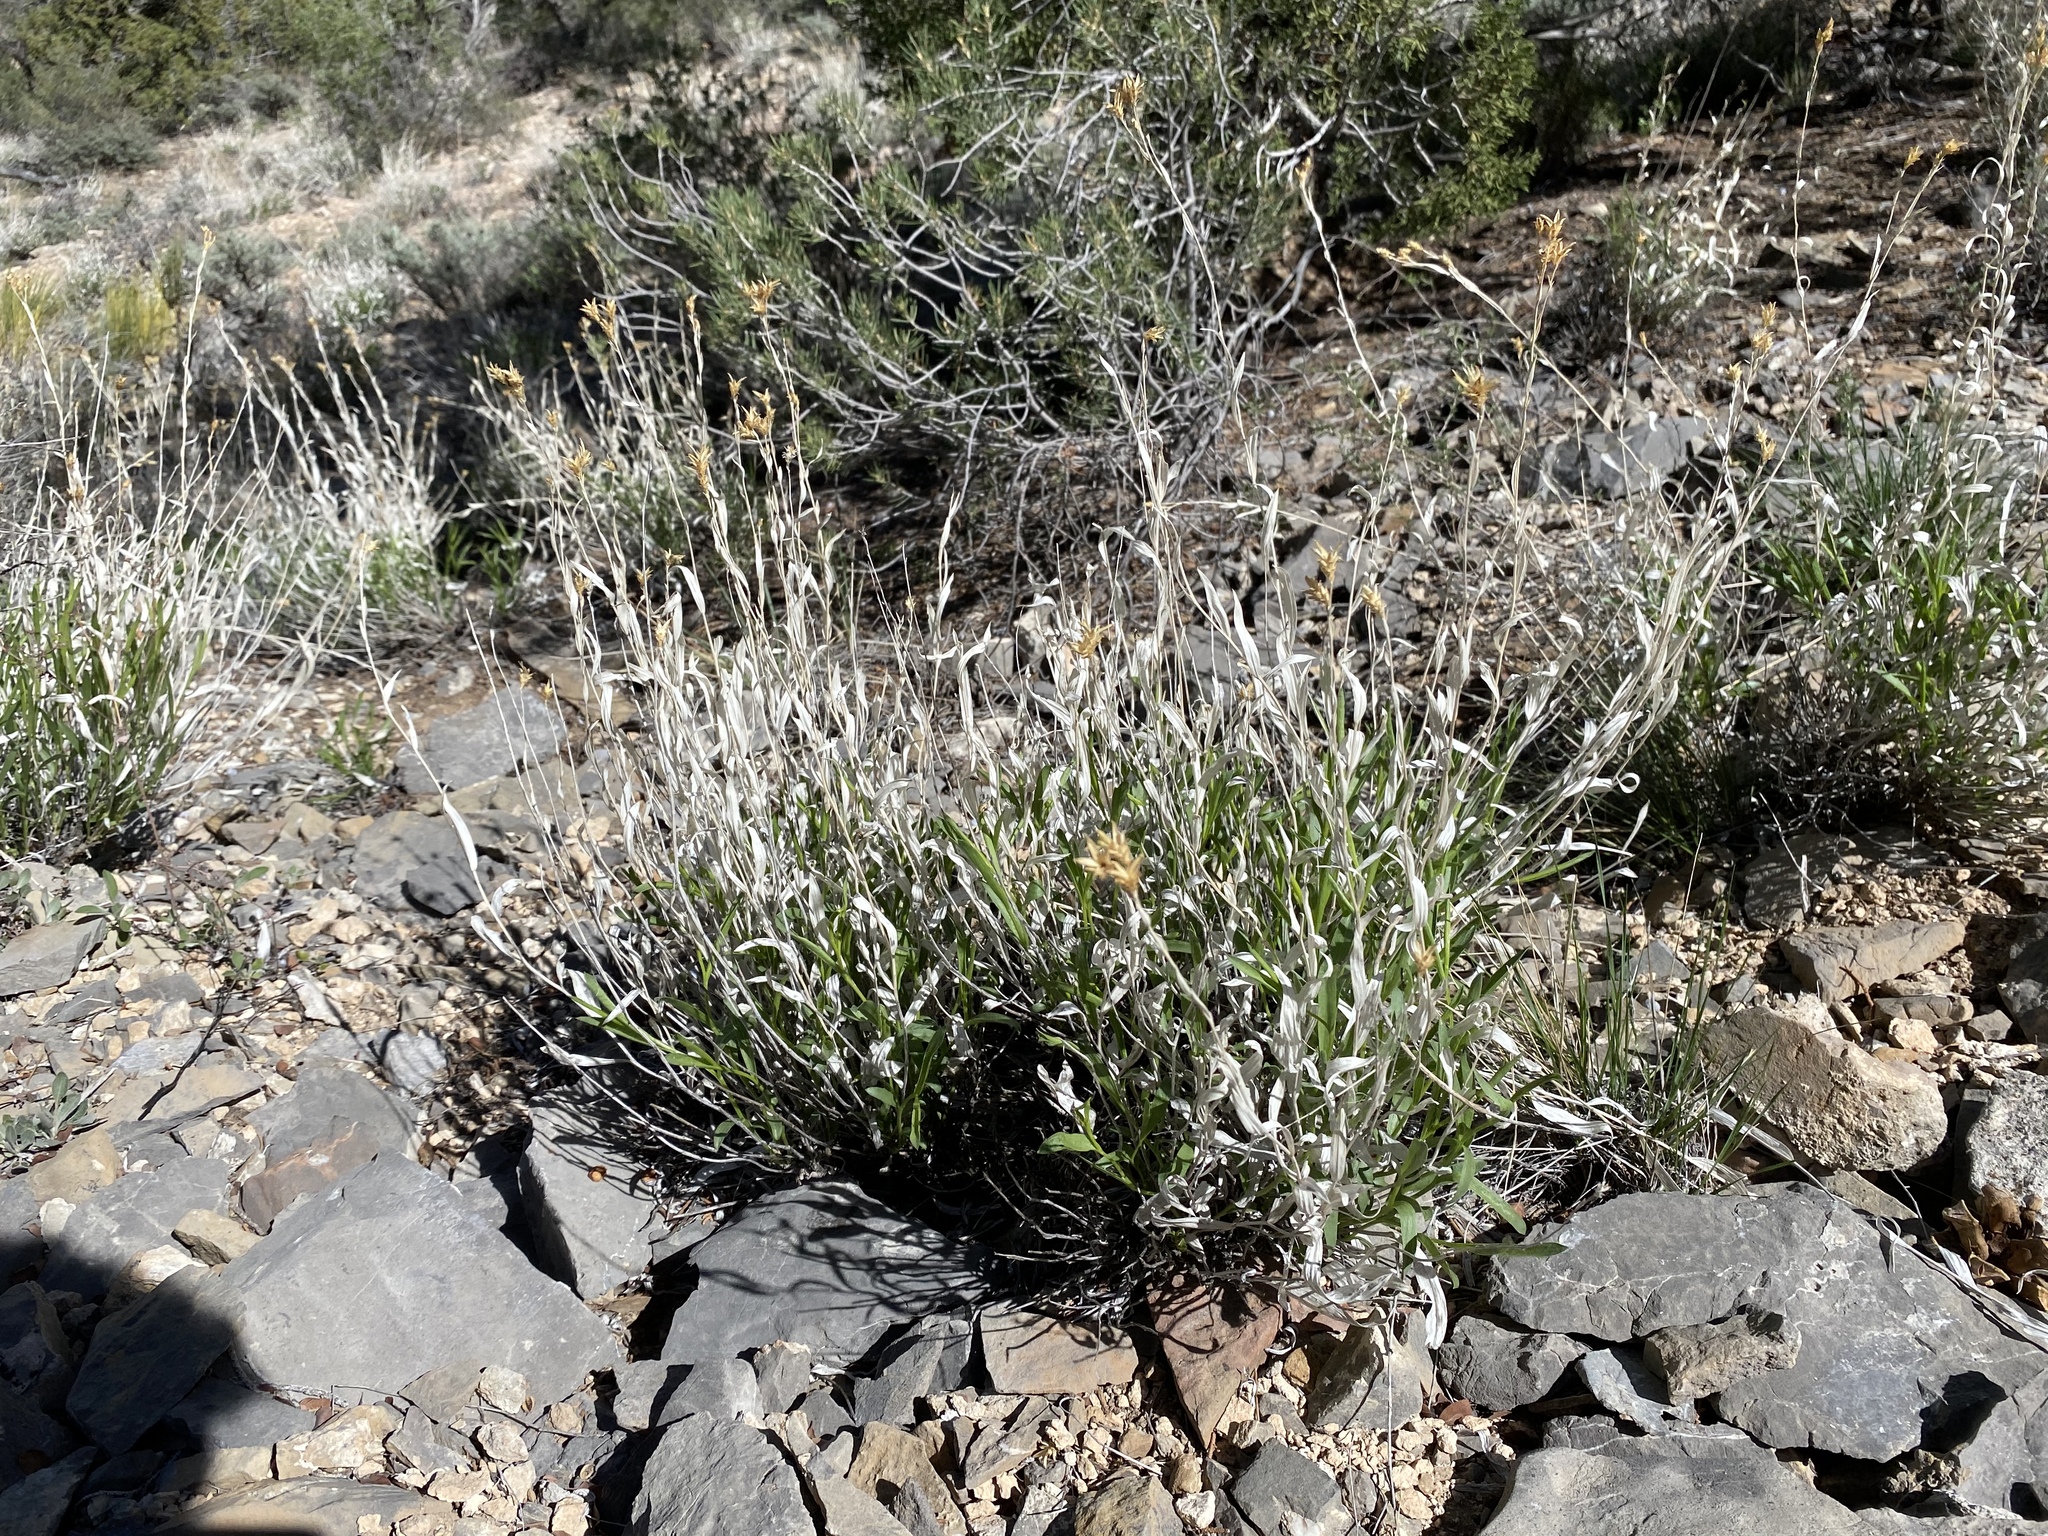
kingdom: Plantae
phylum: Tracheophyta
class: Magnoliopsida
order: Asterales
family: Asteraceae
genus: Cuniculotinus
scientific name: Cuniculotinus gramineus
